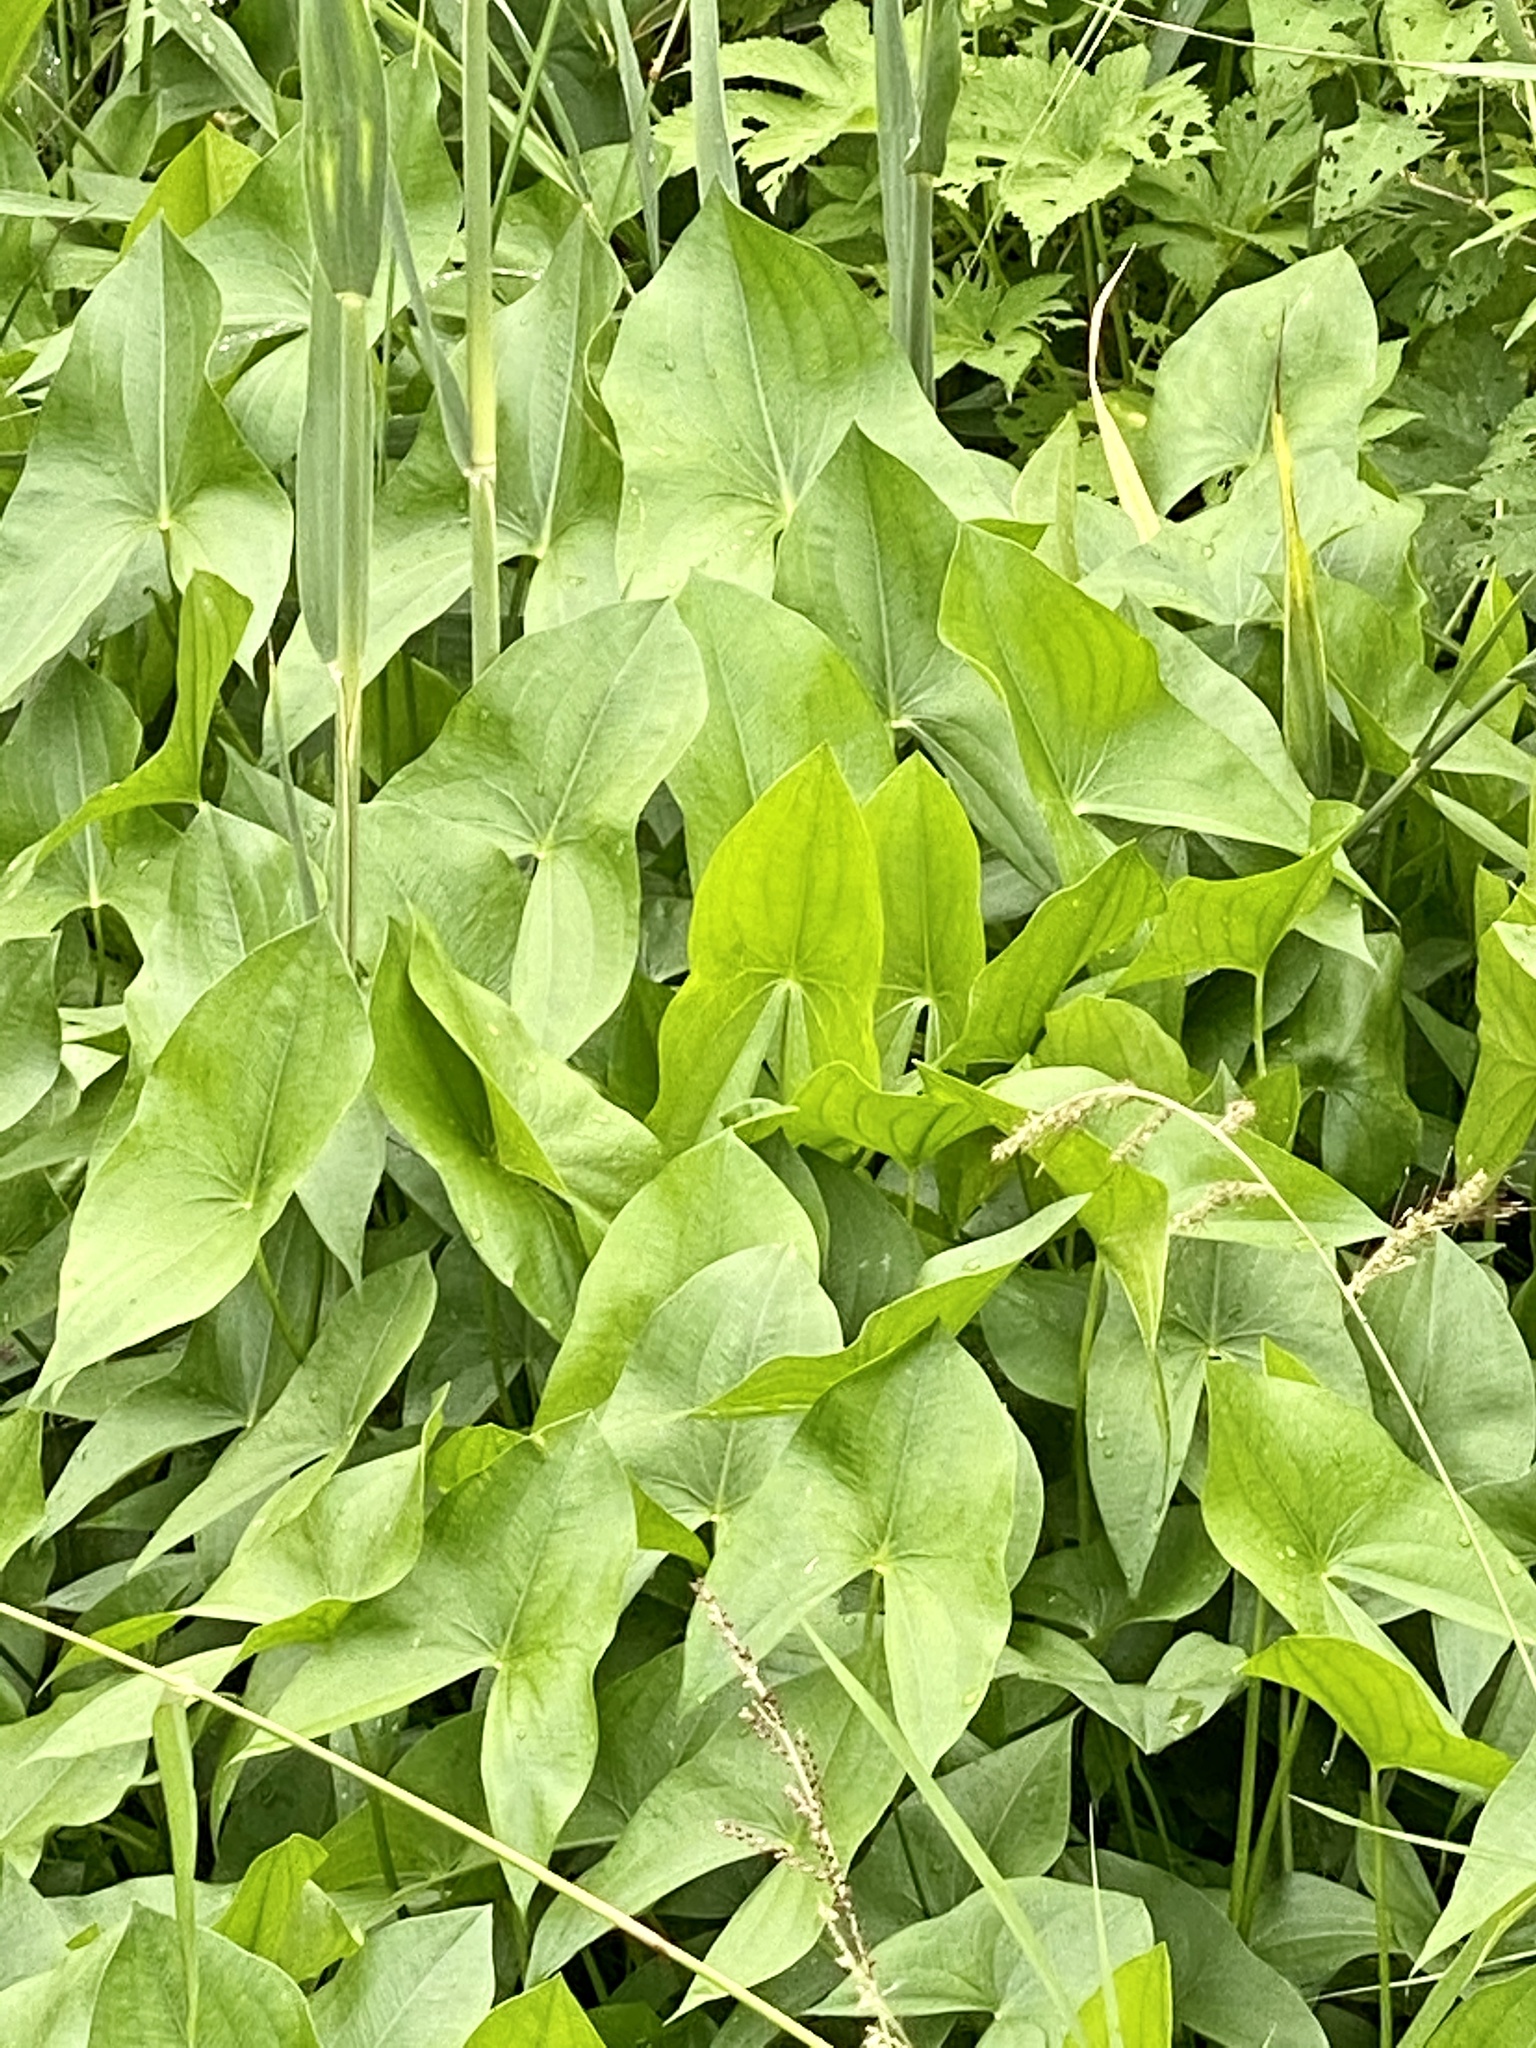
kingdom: Plantae
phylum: Tracheophyta
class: Liliopsida
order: Alismatales
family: Alismataceae
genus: Sagittaria
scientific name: Sagittaria latifolia
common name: Duck-potato
